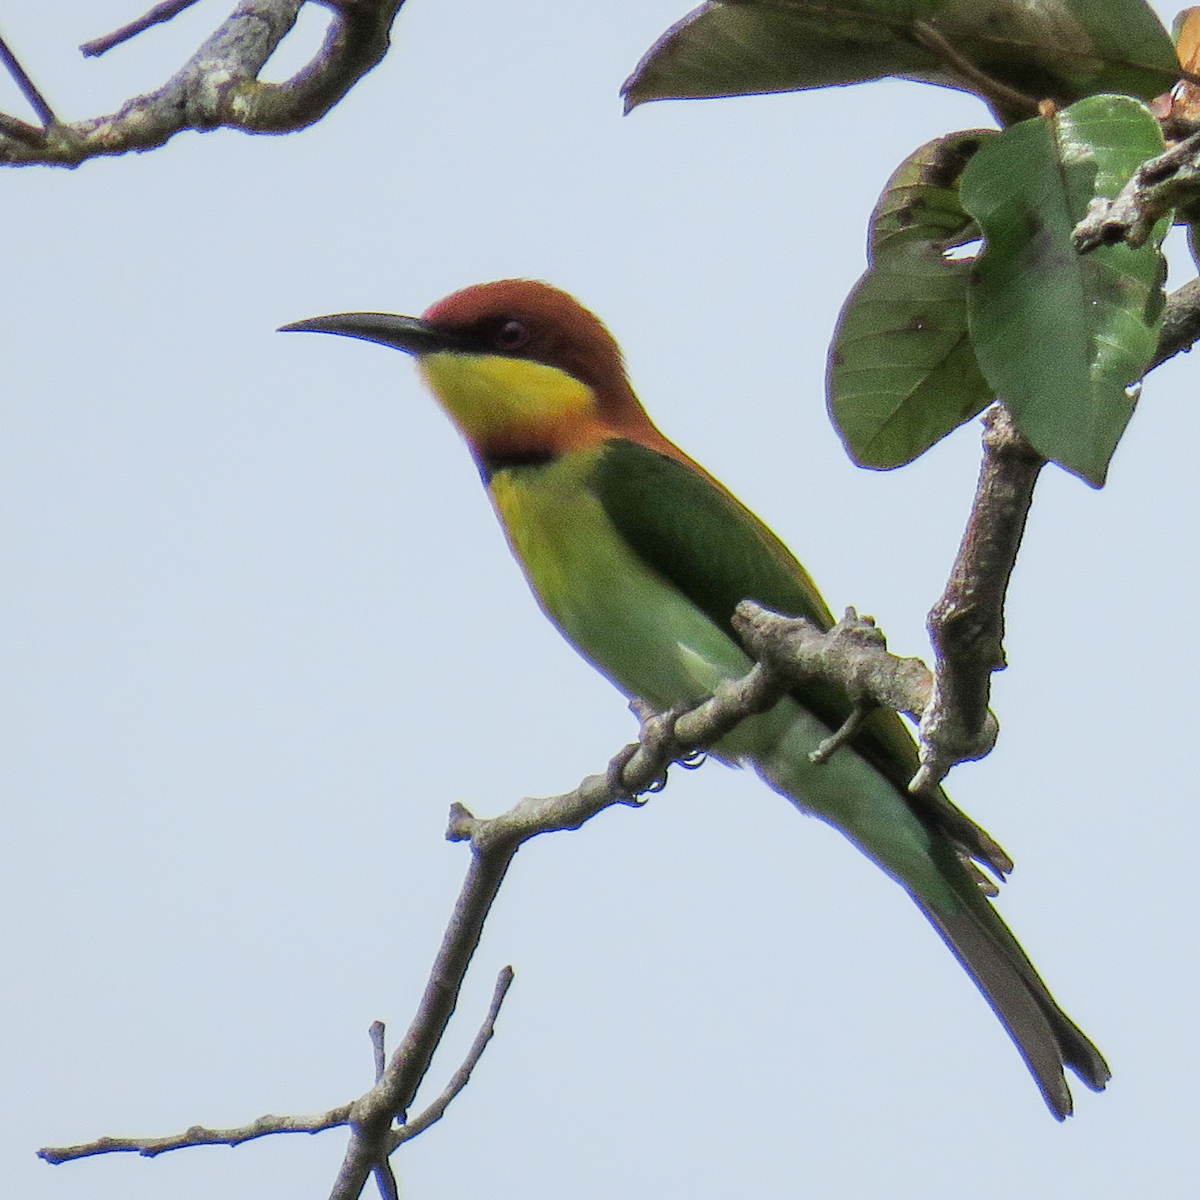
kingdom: Animalia
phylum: Chordata
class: Aves
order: Coraciiformes
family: Meropidae
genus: Merops
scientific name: Merops leschenaulti
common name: Chestnut-headed bee-eater
